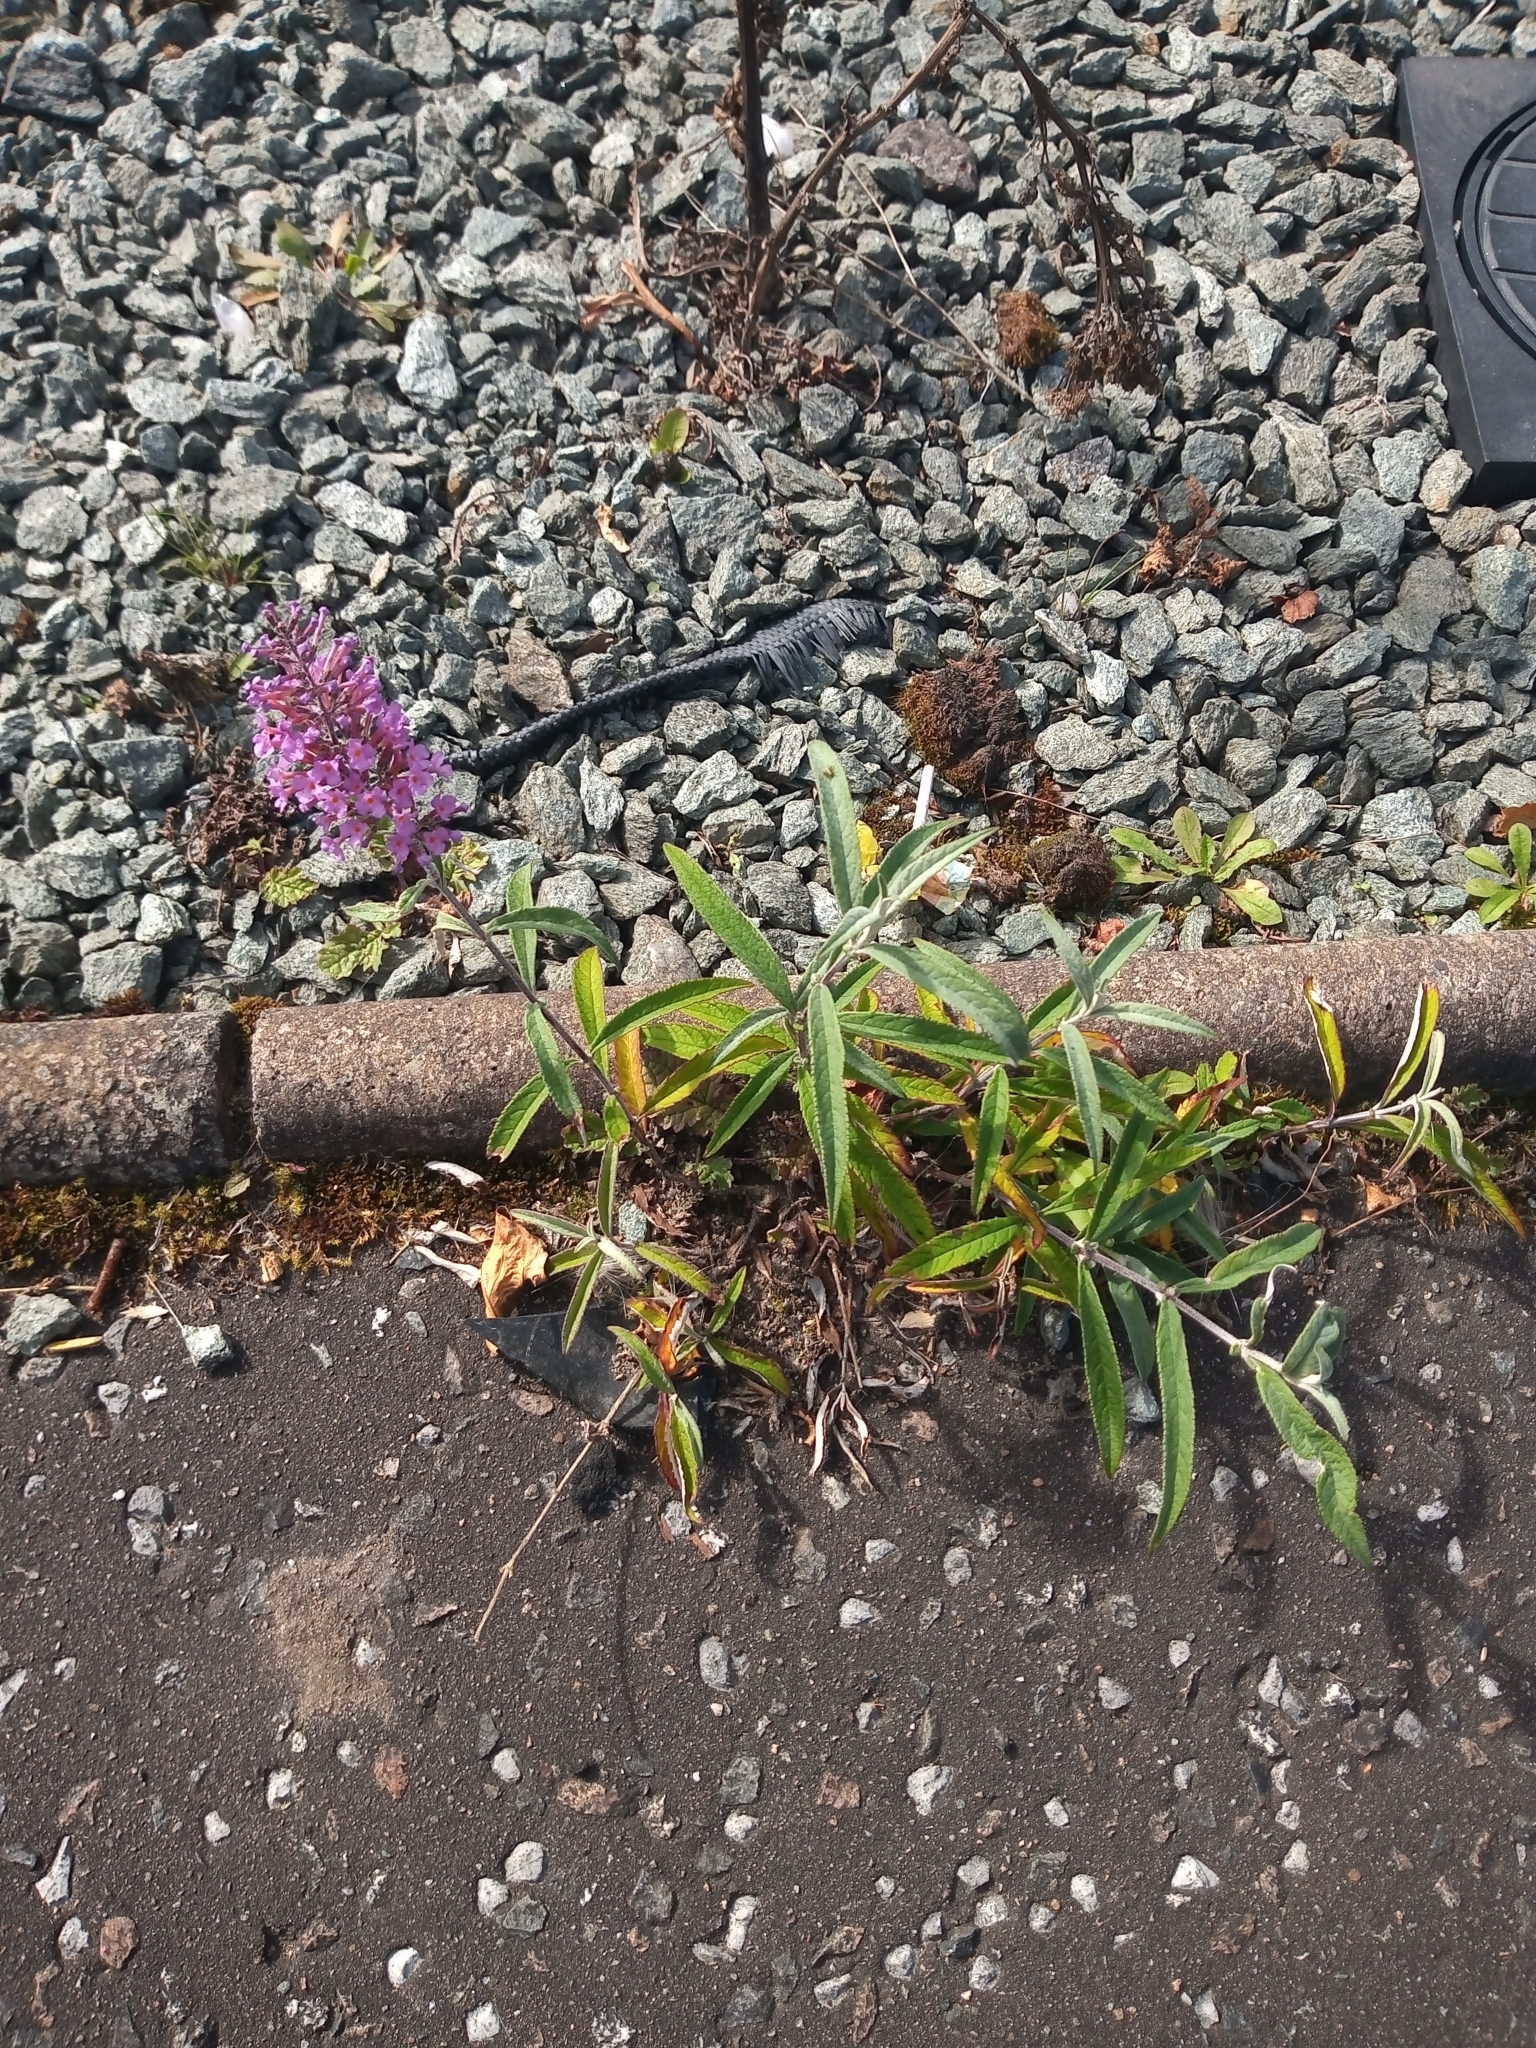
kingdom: Plantae
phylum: Tracheophyta
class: Magnoliopsida
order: Lamiales
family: Scrophulariaceae
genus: Buddleja
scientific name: Buddleja davidii
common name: Butterfly-bush
